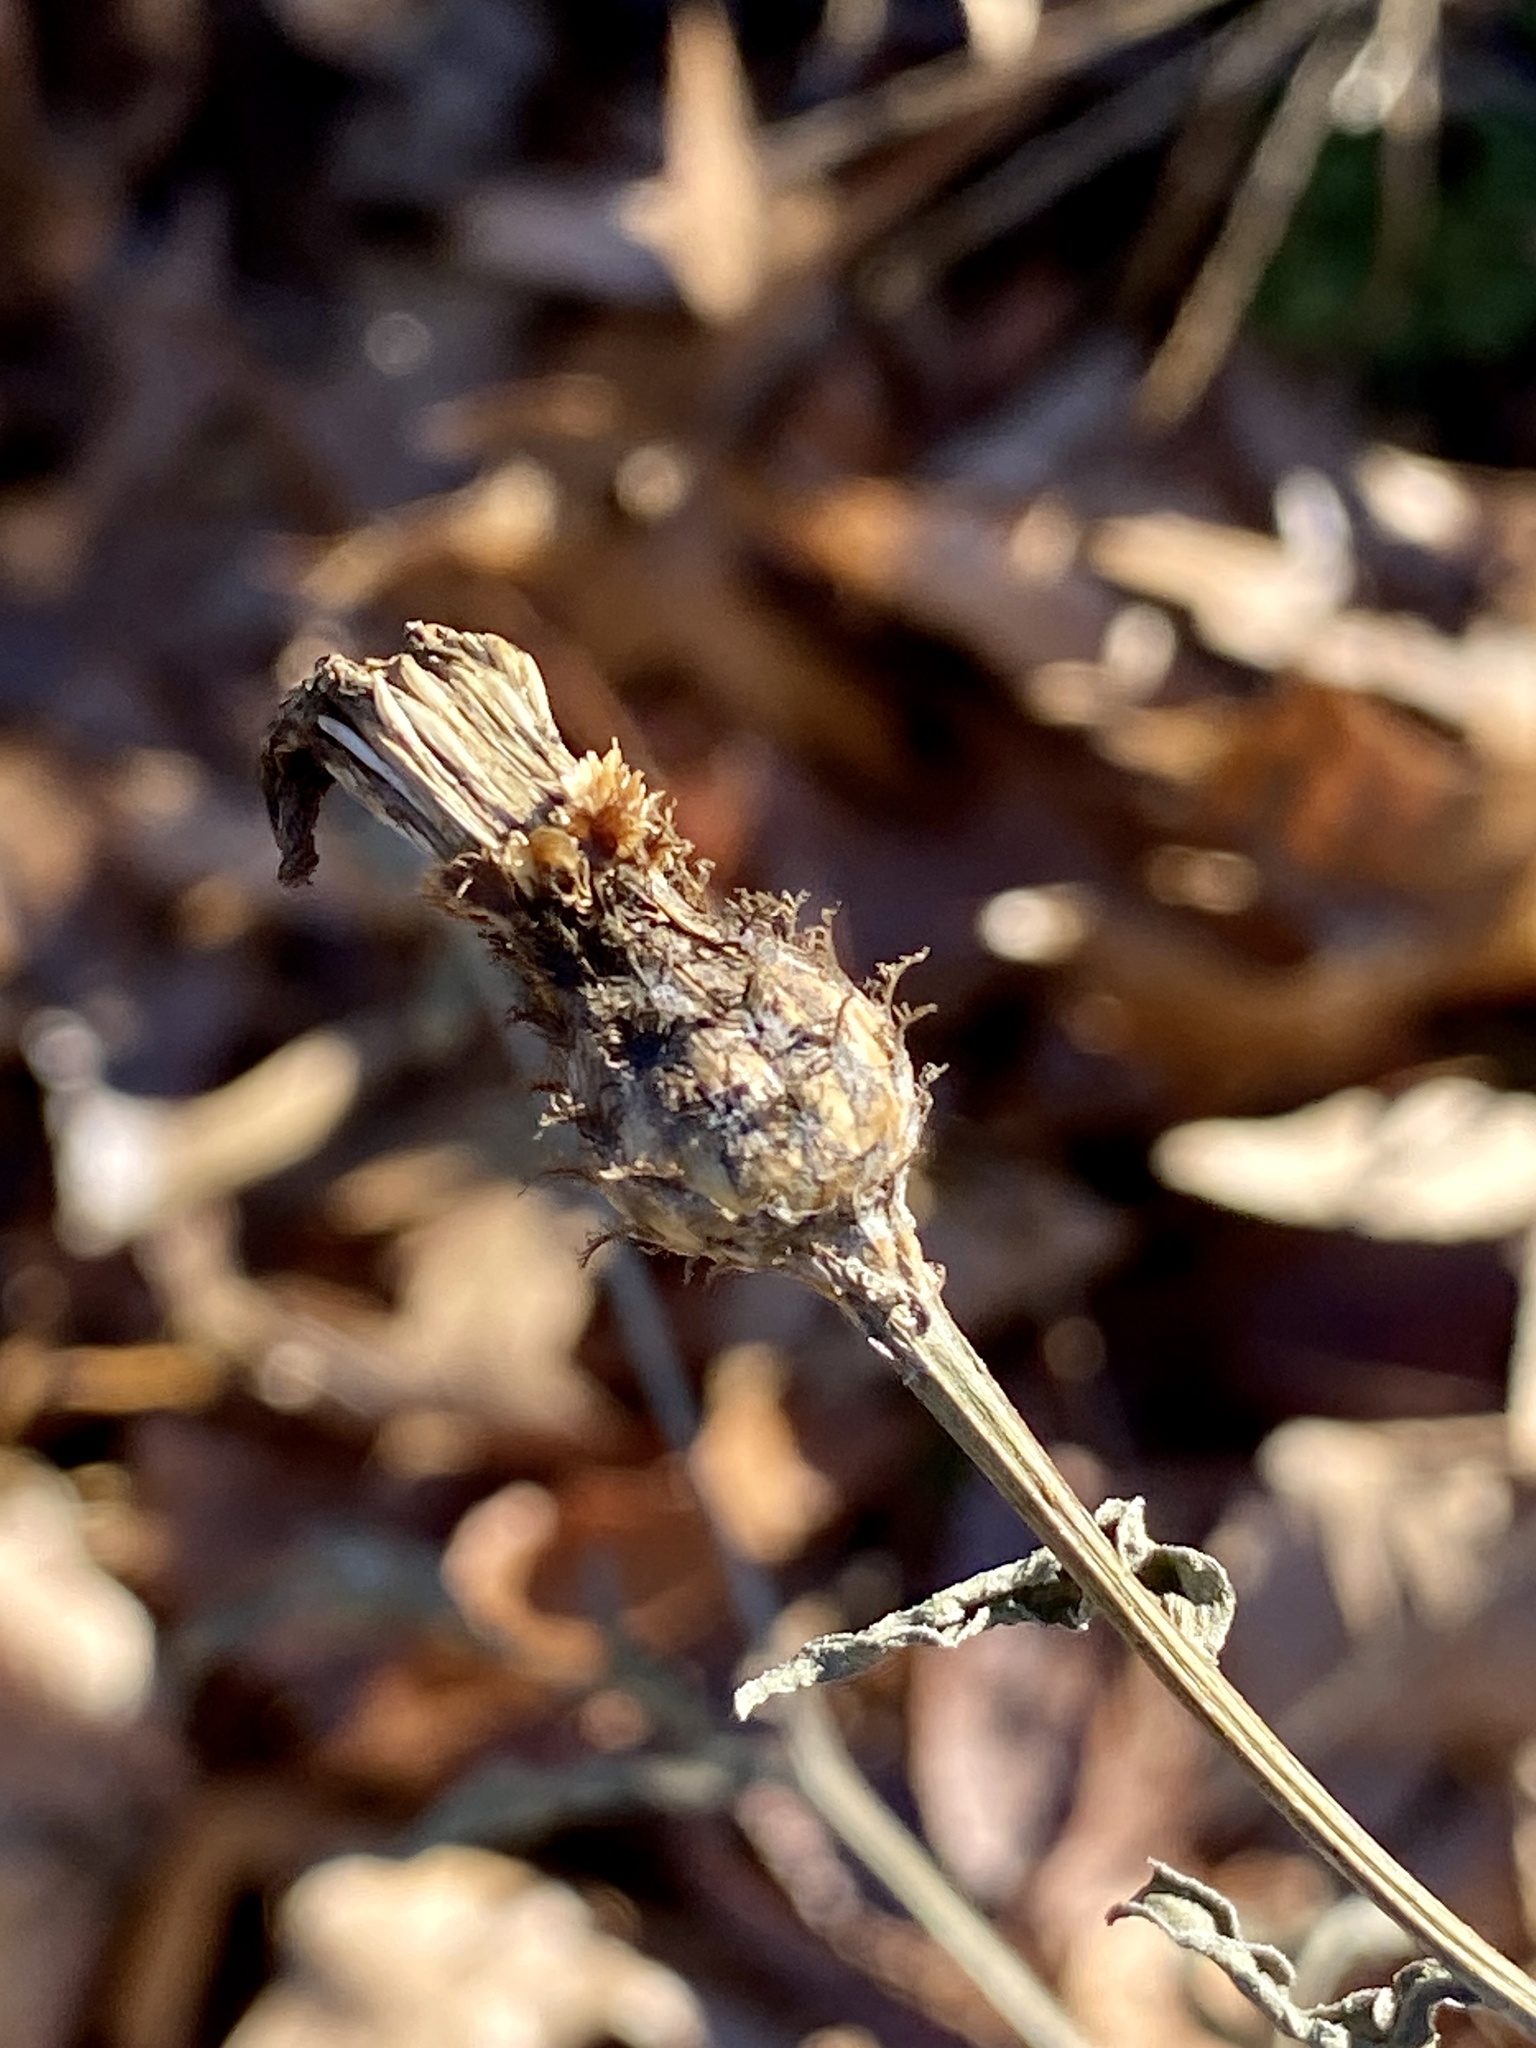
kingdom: Plantae
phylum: Tracheophyta
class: Magnoliopsida
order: Asterales
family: Asteraceae
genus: Centaurea
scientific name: Centaurea nigrescens
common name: Tyrol knapweed
